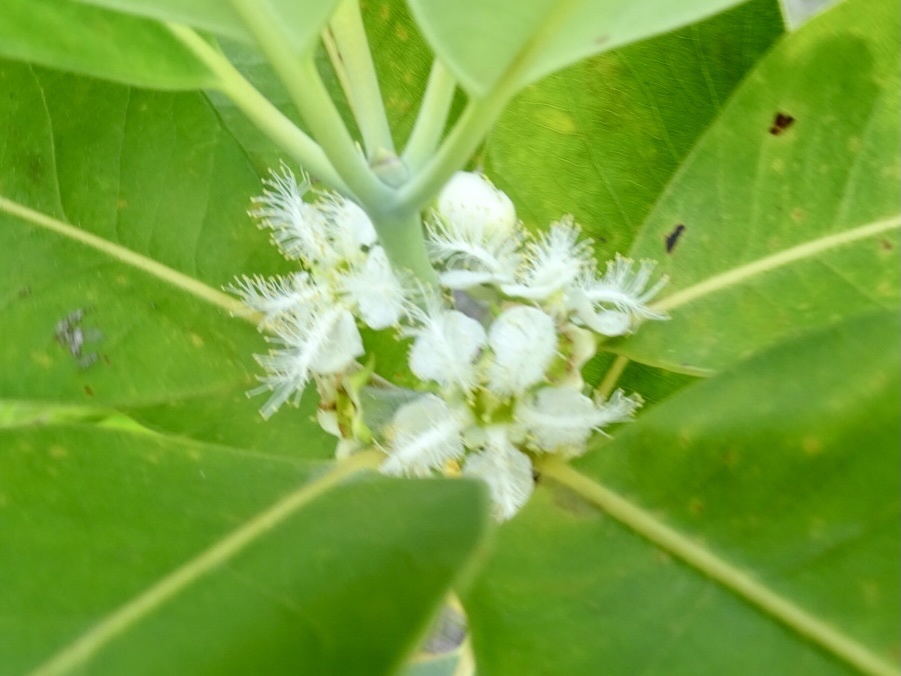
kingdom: Plantae
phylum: Tracheophyta
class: Magnoliopsida
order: Myrtales
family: Myrtaceae
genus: Lophostemon
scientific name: Lophostemon confertus
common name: Brisbane box
